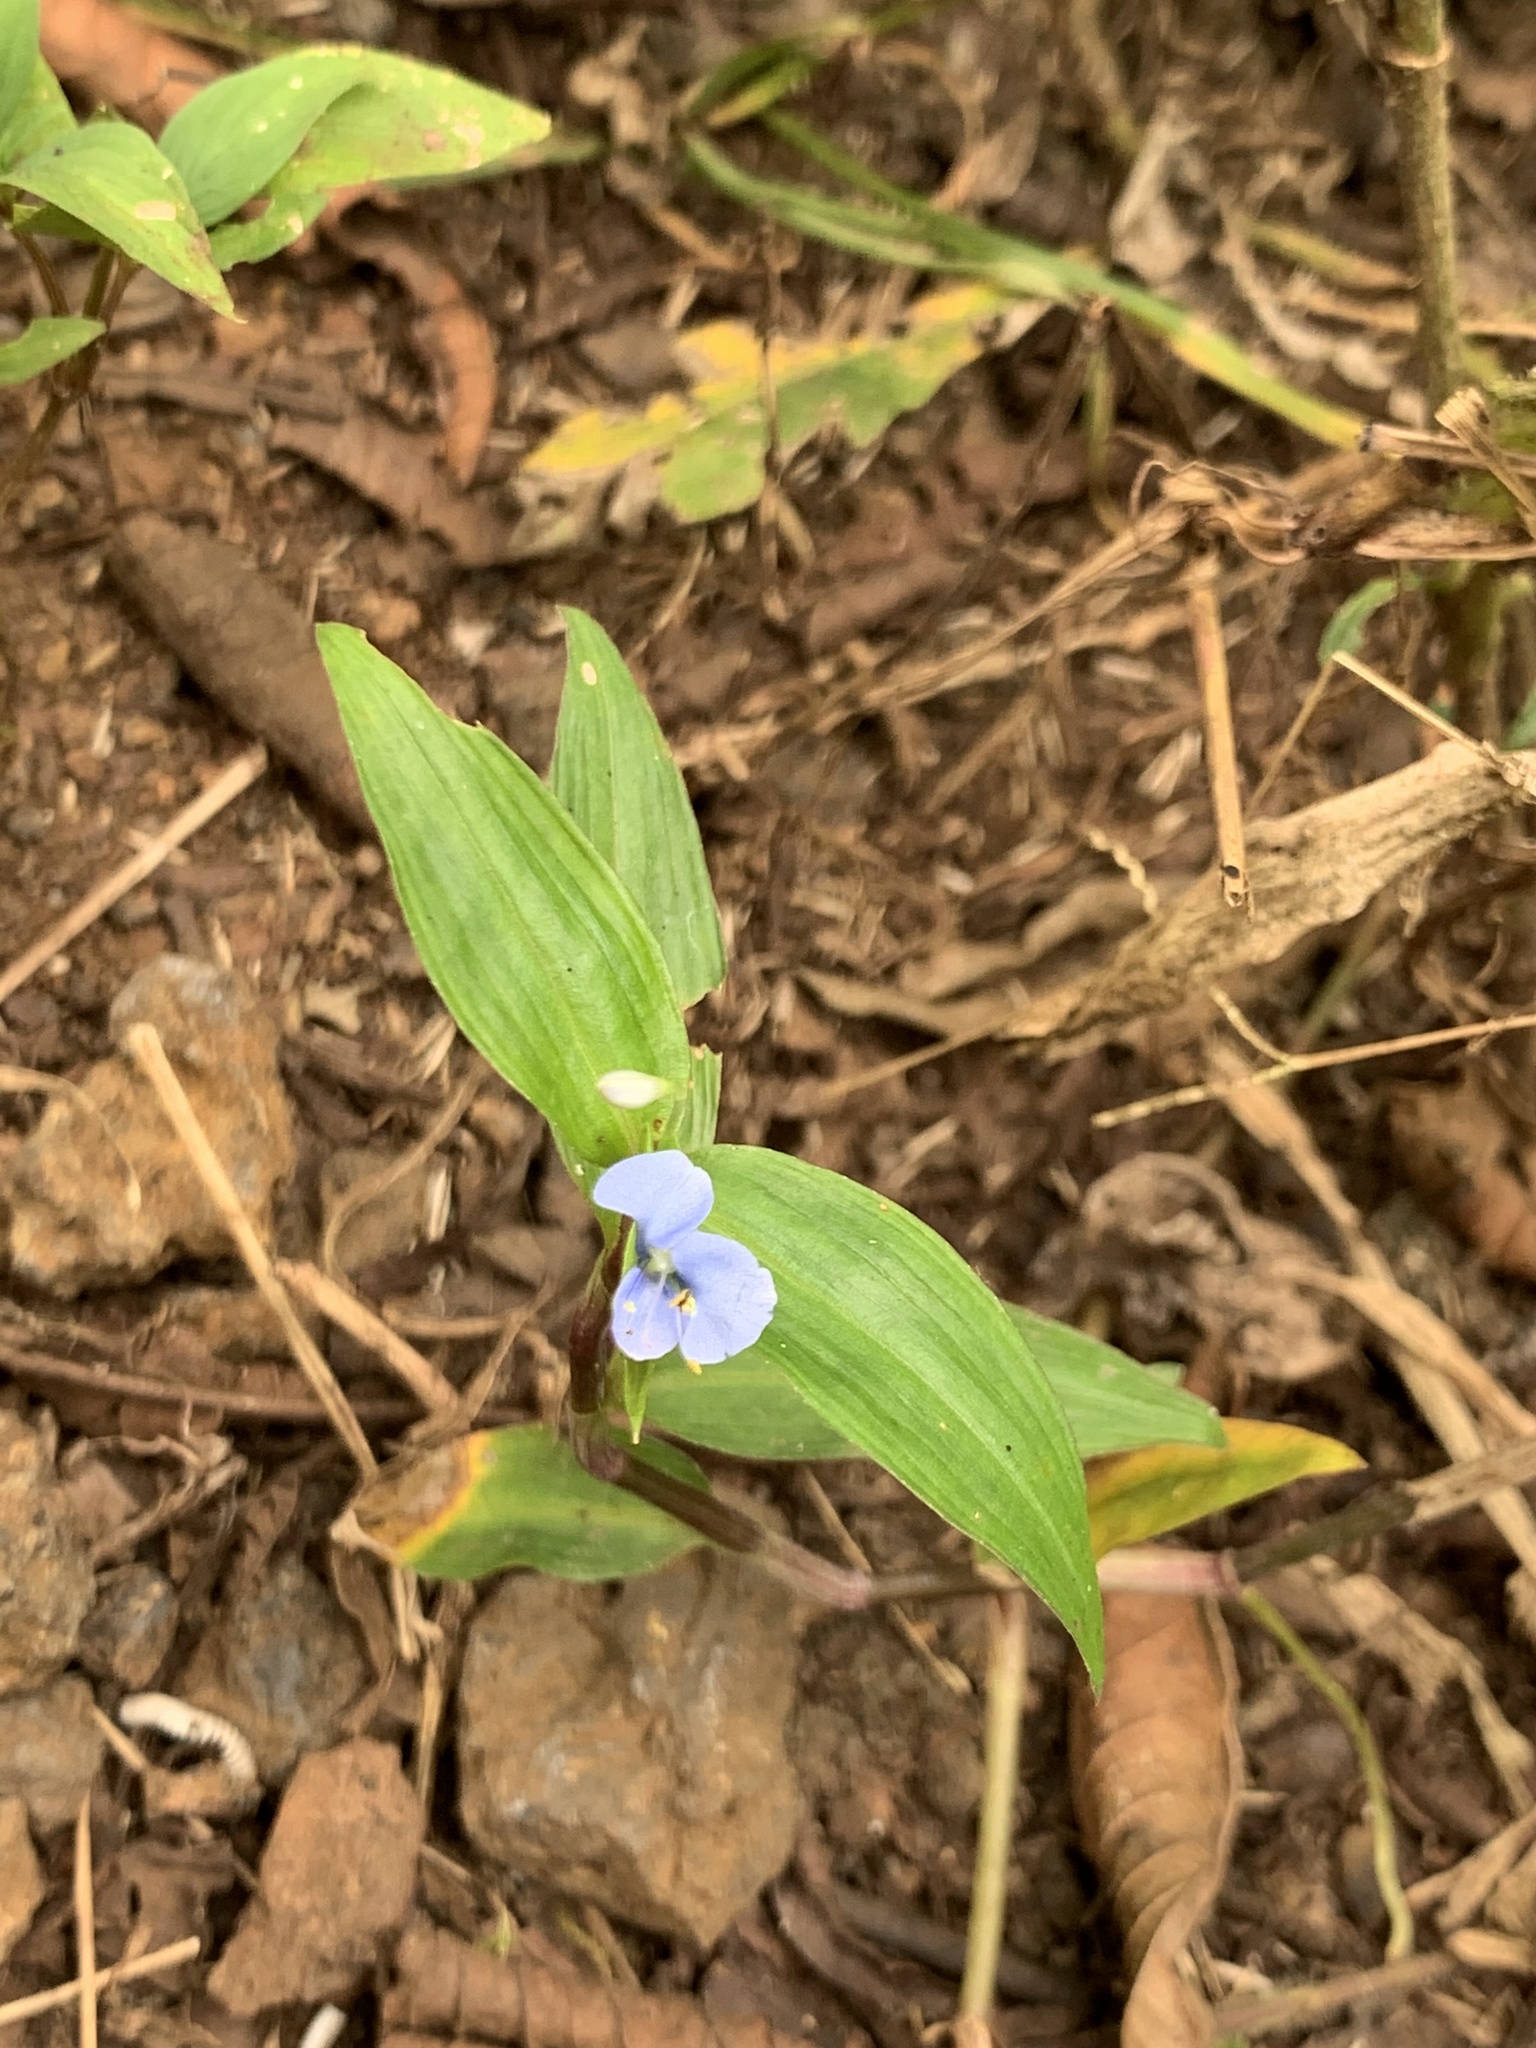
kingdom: Plantae
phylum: Tracheophyta
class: Liliopsida
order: Commelinales
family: Commelinaceae
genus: Commelina
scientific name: Commelina diffusa
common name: Climbing dayflower
